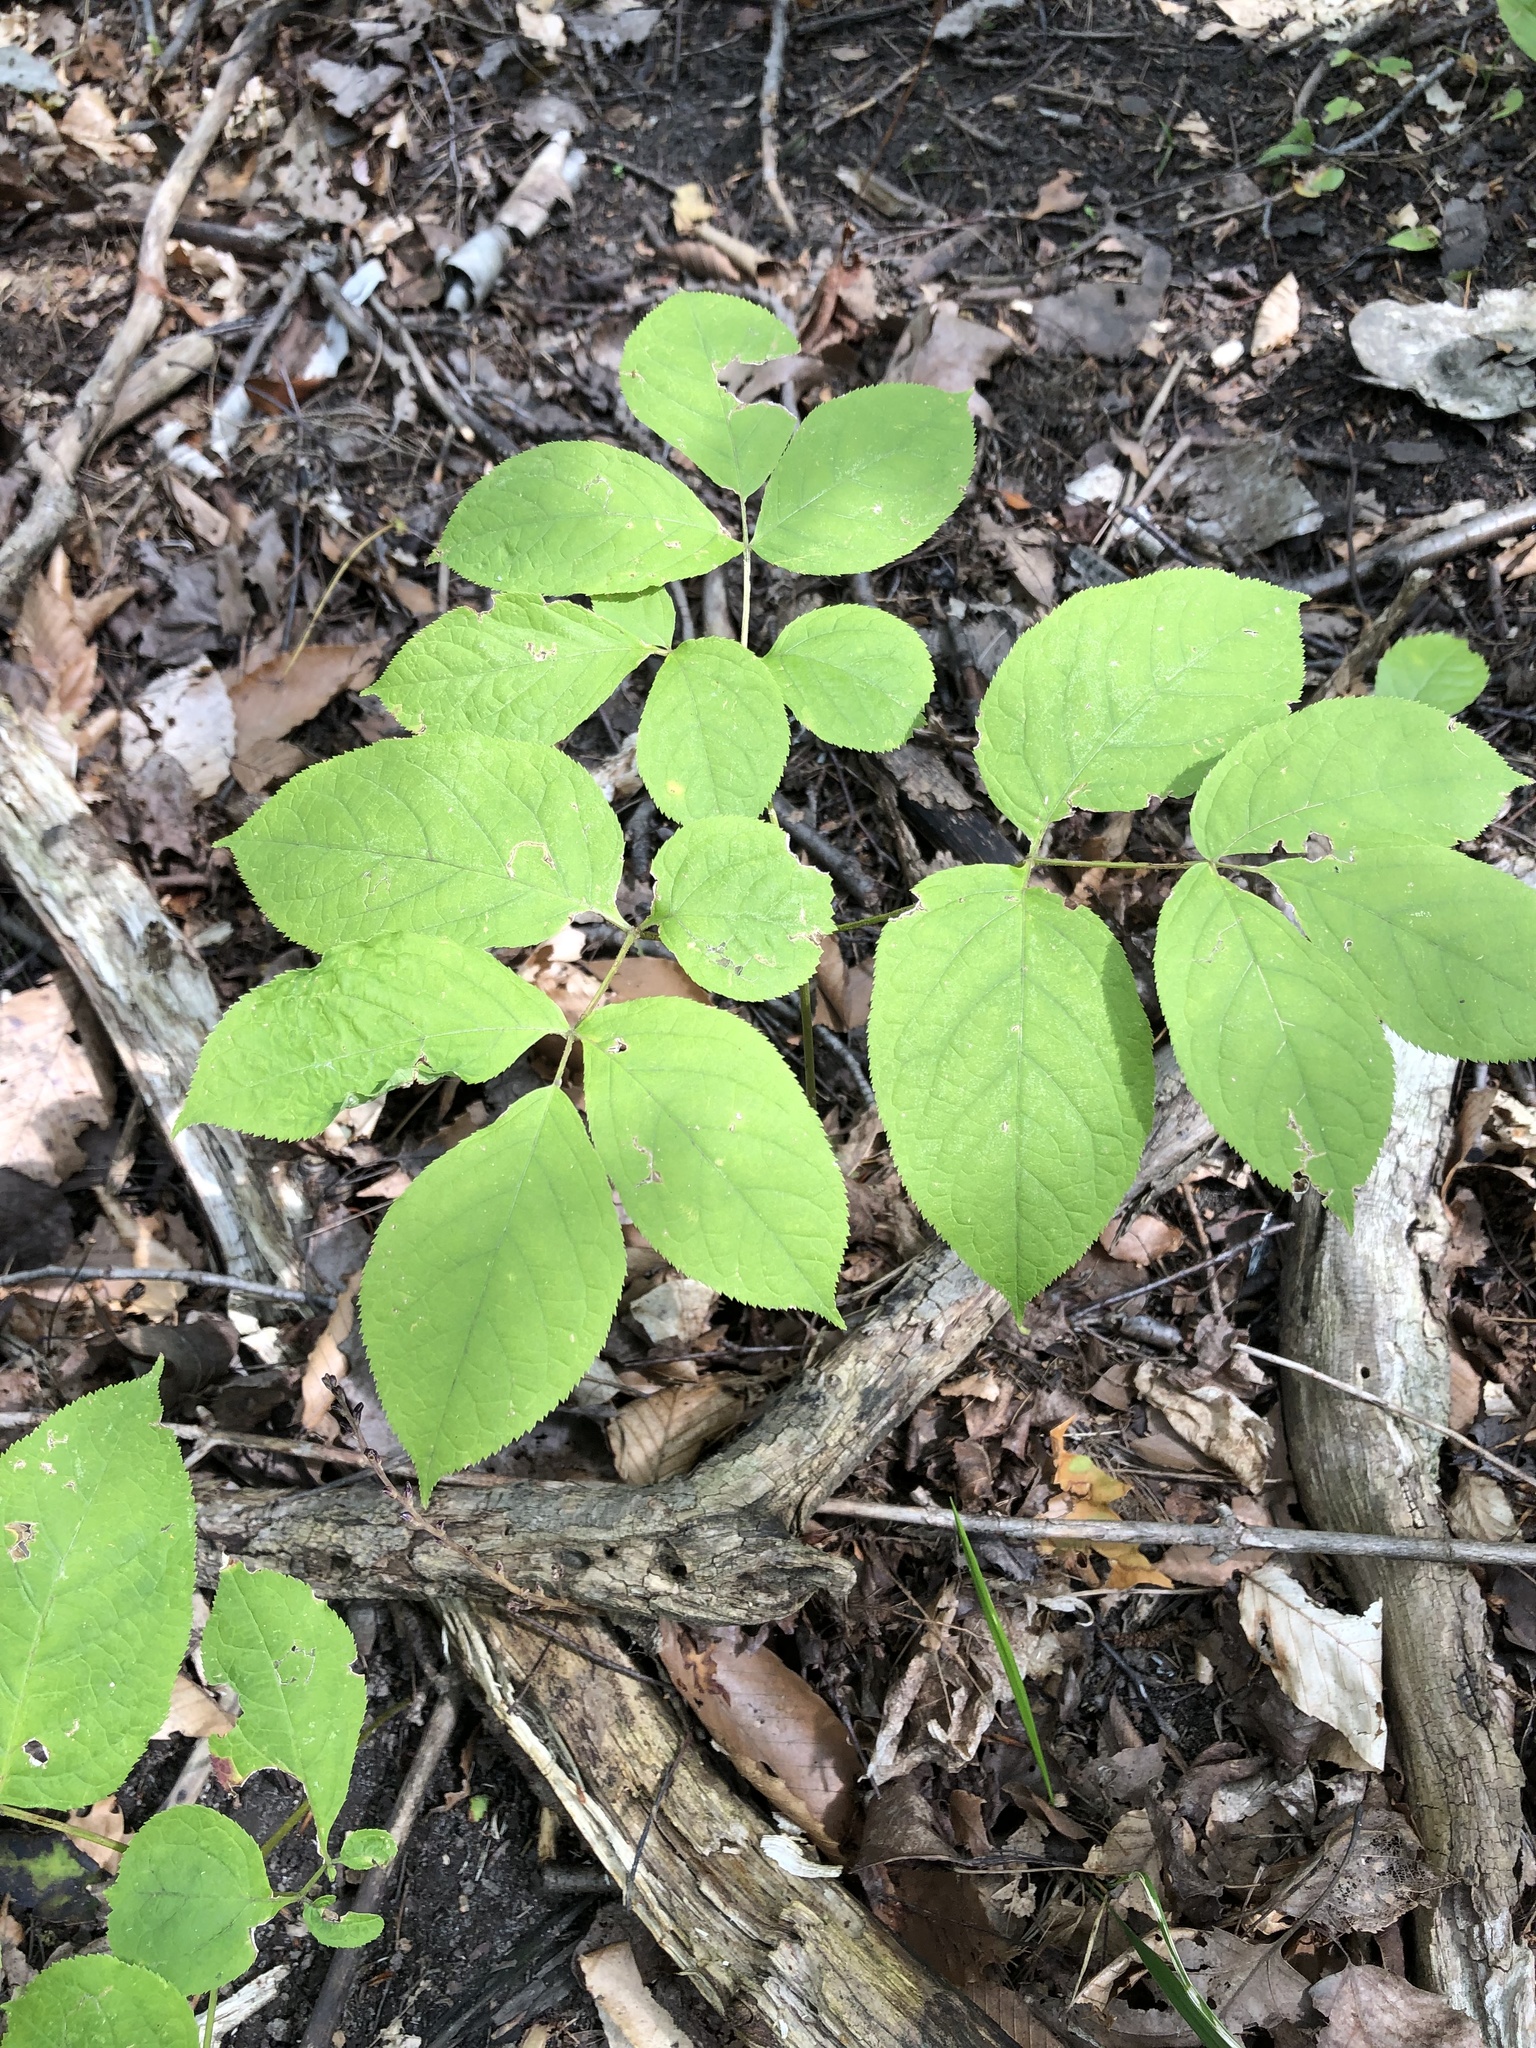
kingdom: Plantae
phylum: Tracheophyta
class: Magnoliopsida
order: Apiales
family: Araliaceae
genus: Aralia
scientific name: Aralia nudicaulis
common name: Wild sarsaparilla
